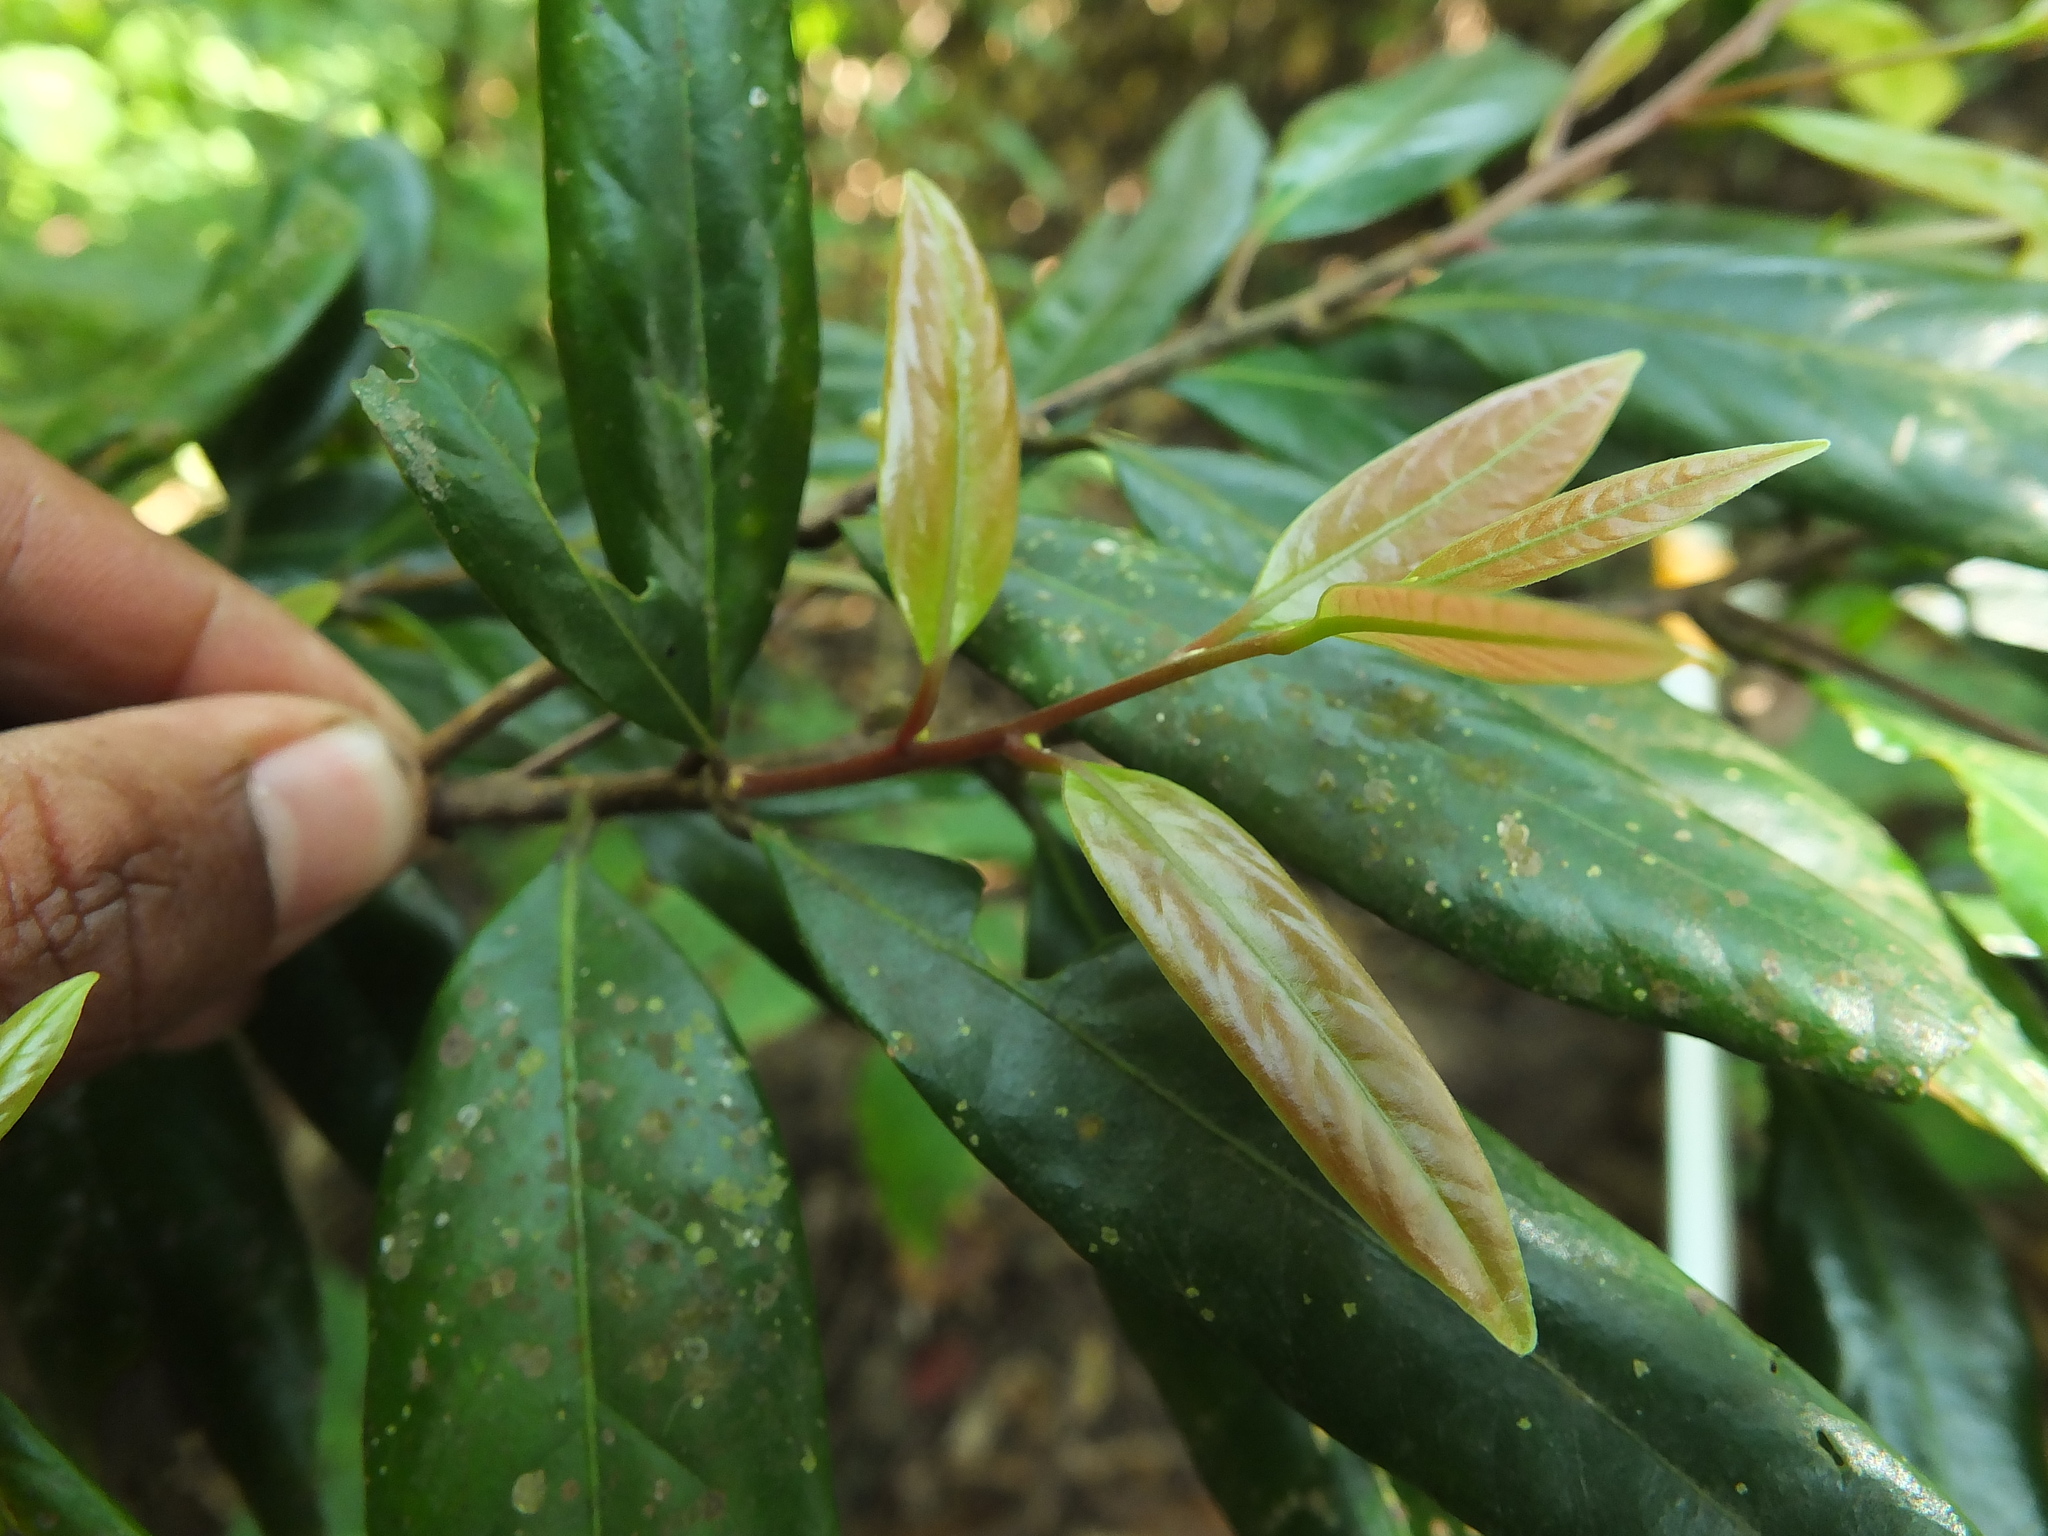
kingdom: Plantae
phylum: Tracheophyta
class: Magnoliopsida
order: Laurales
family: Lauraceae
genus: Litsea
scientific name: Litsea laevigata
